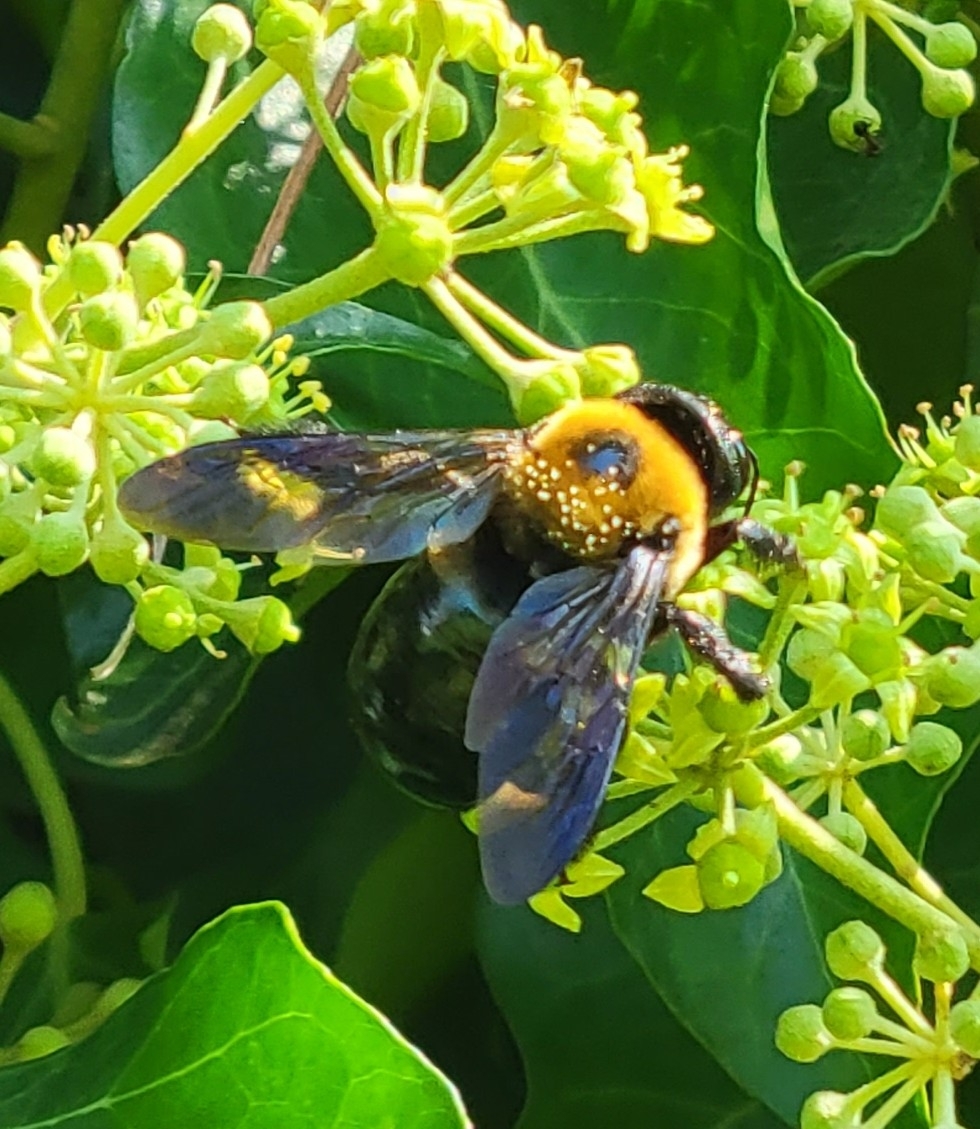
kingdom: Animalia
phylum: Arthropoda
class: Insecta
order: Hymenoptera
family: Apidae
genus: Xylocopa
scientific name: Xylocopa virginica
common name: Carpenter bee
